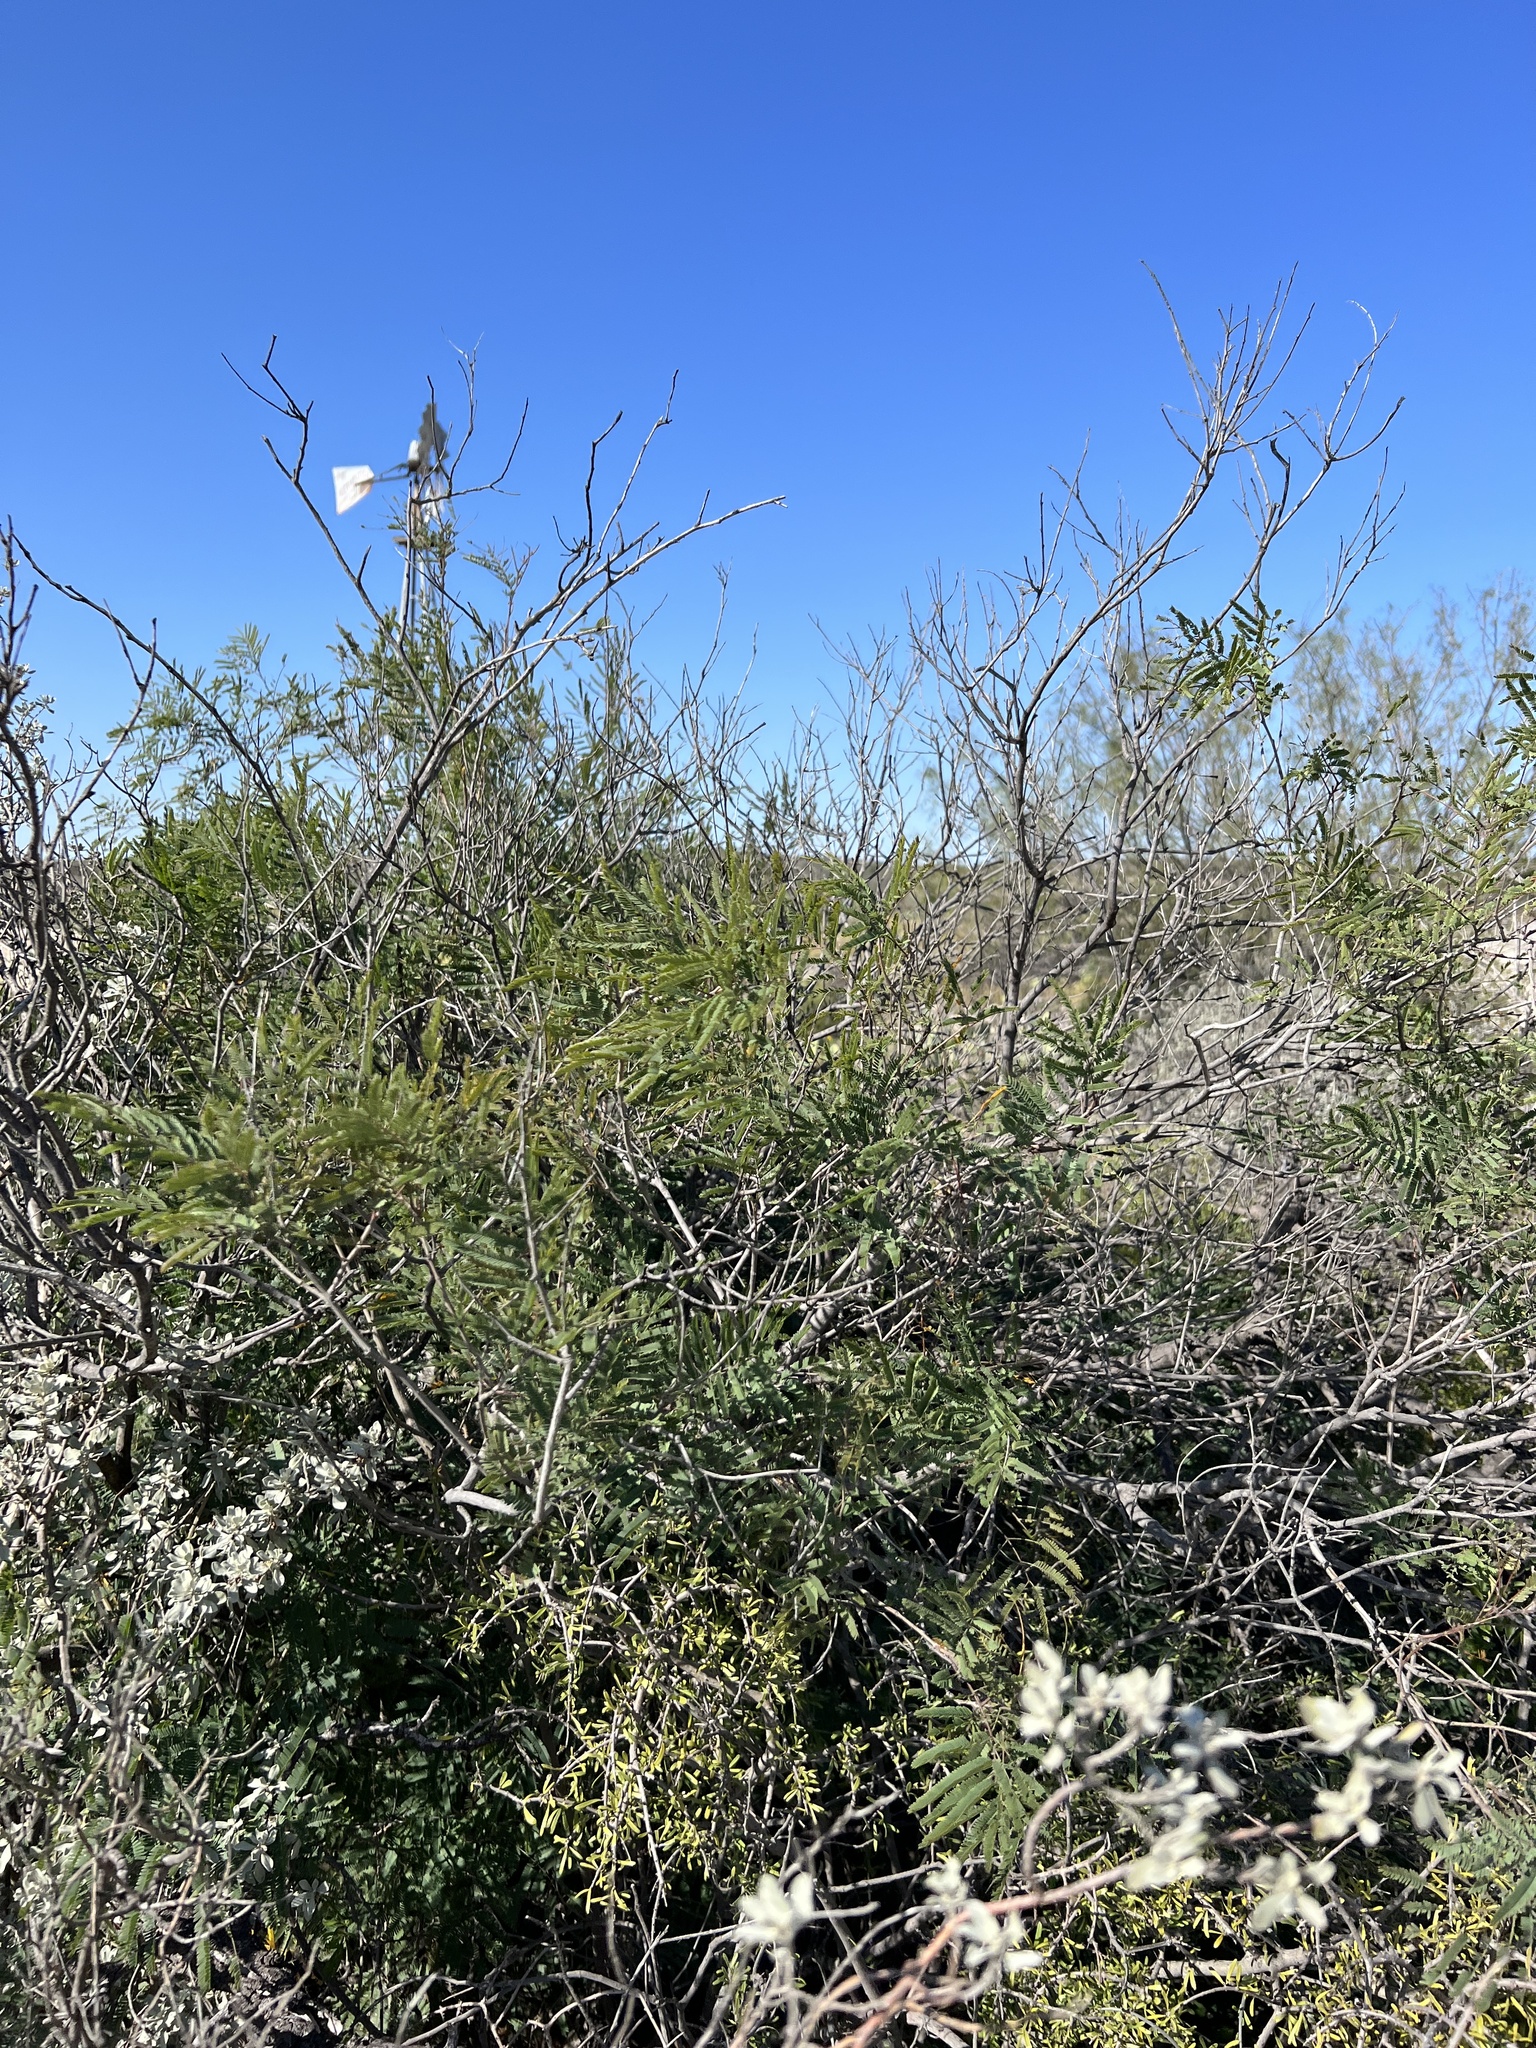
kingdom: Plantae
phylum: Tracheophyta
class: Magnoliopsida
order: Fabales
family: Fabaceae
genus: Senegalia
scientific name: Senegalia berlandieri
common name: Berlandier acacia
